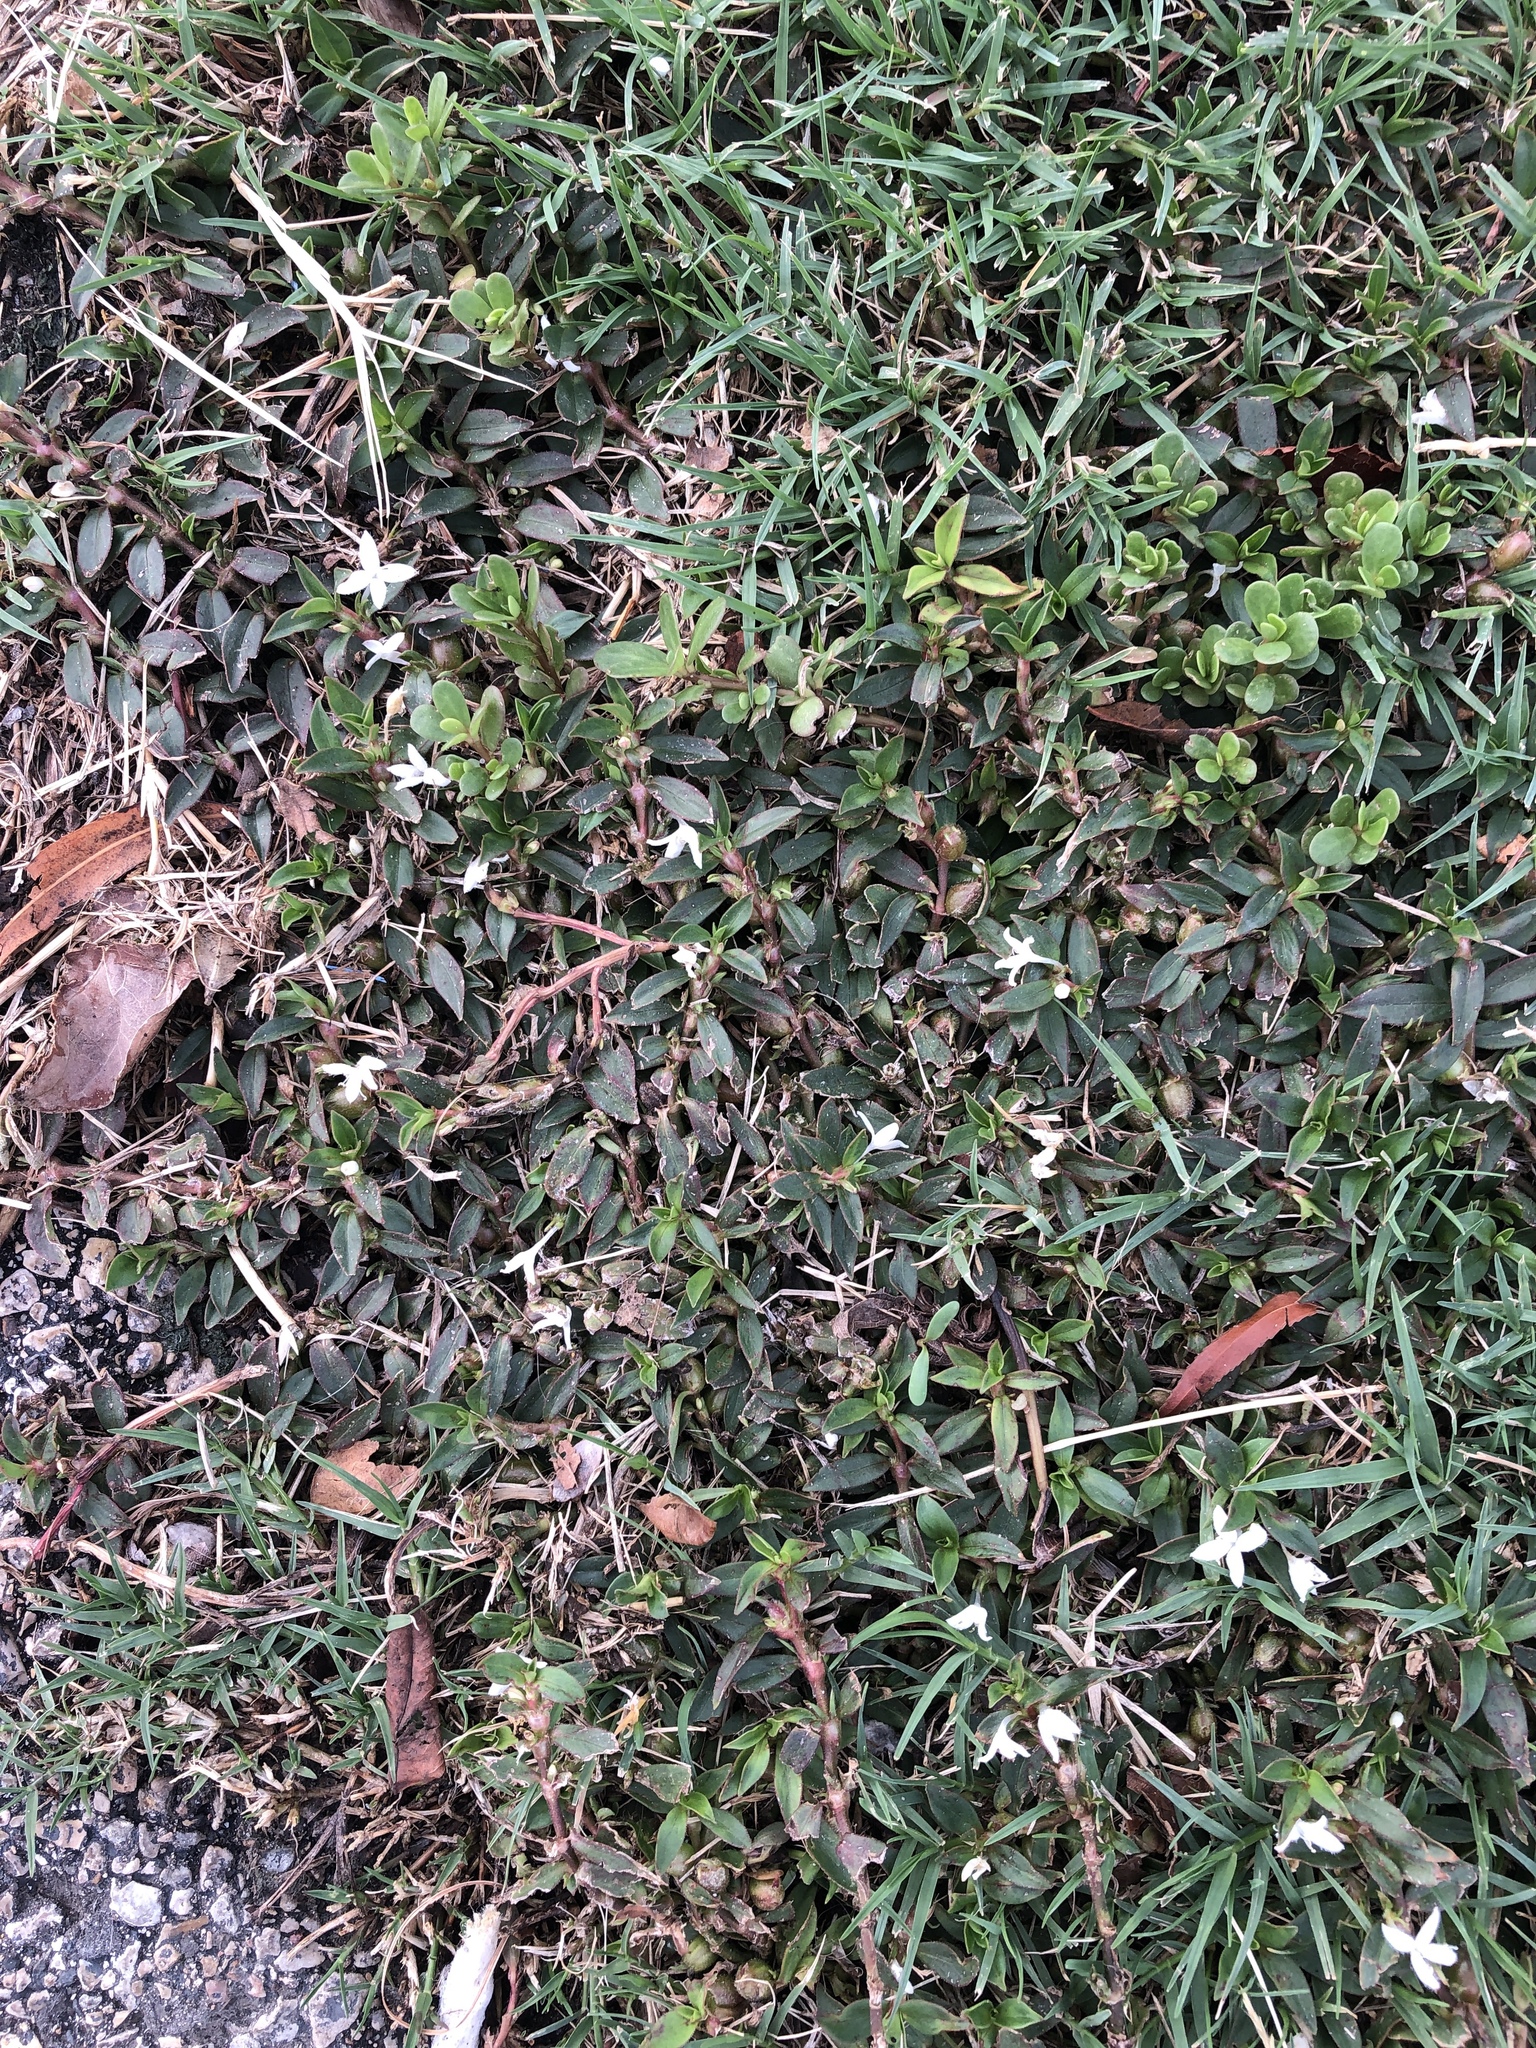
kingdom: Plantae
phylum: Tracheophyta
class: Magnoliopsida
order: Gentianales
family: Rubiaceae
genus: Diodia
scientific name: Diodia virginiana
